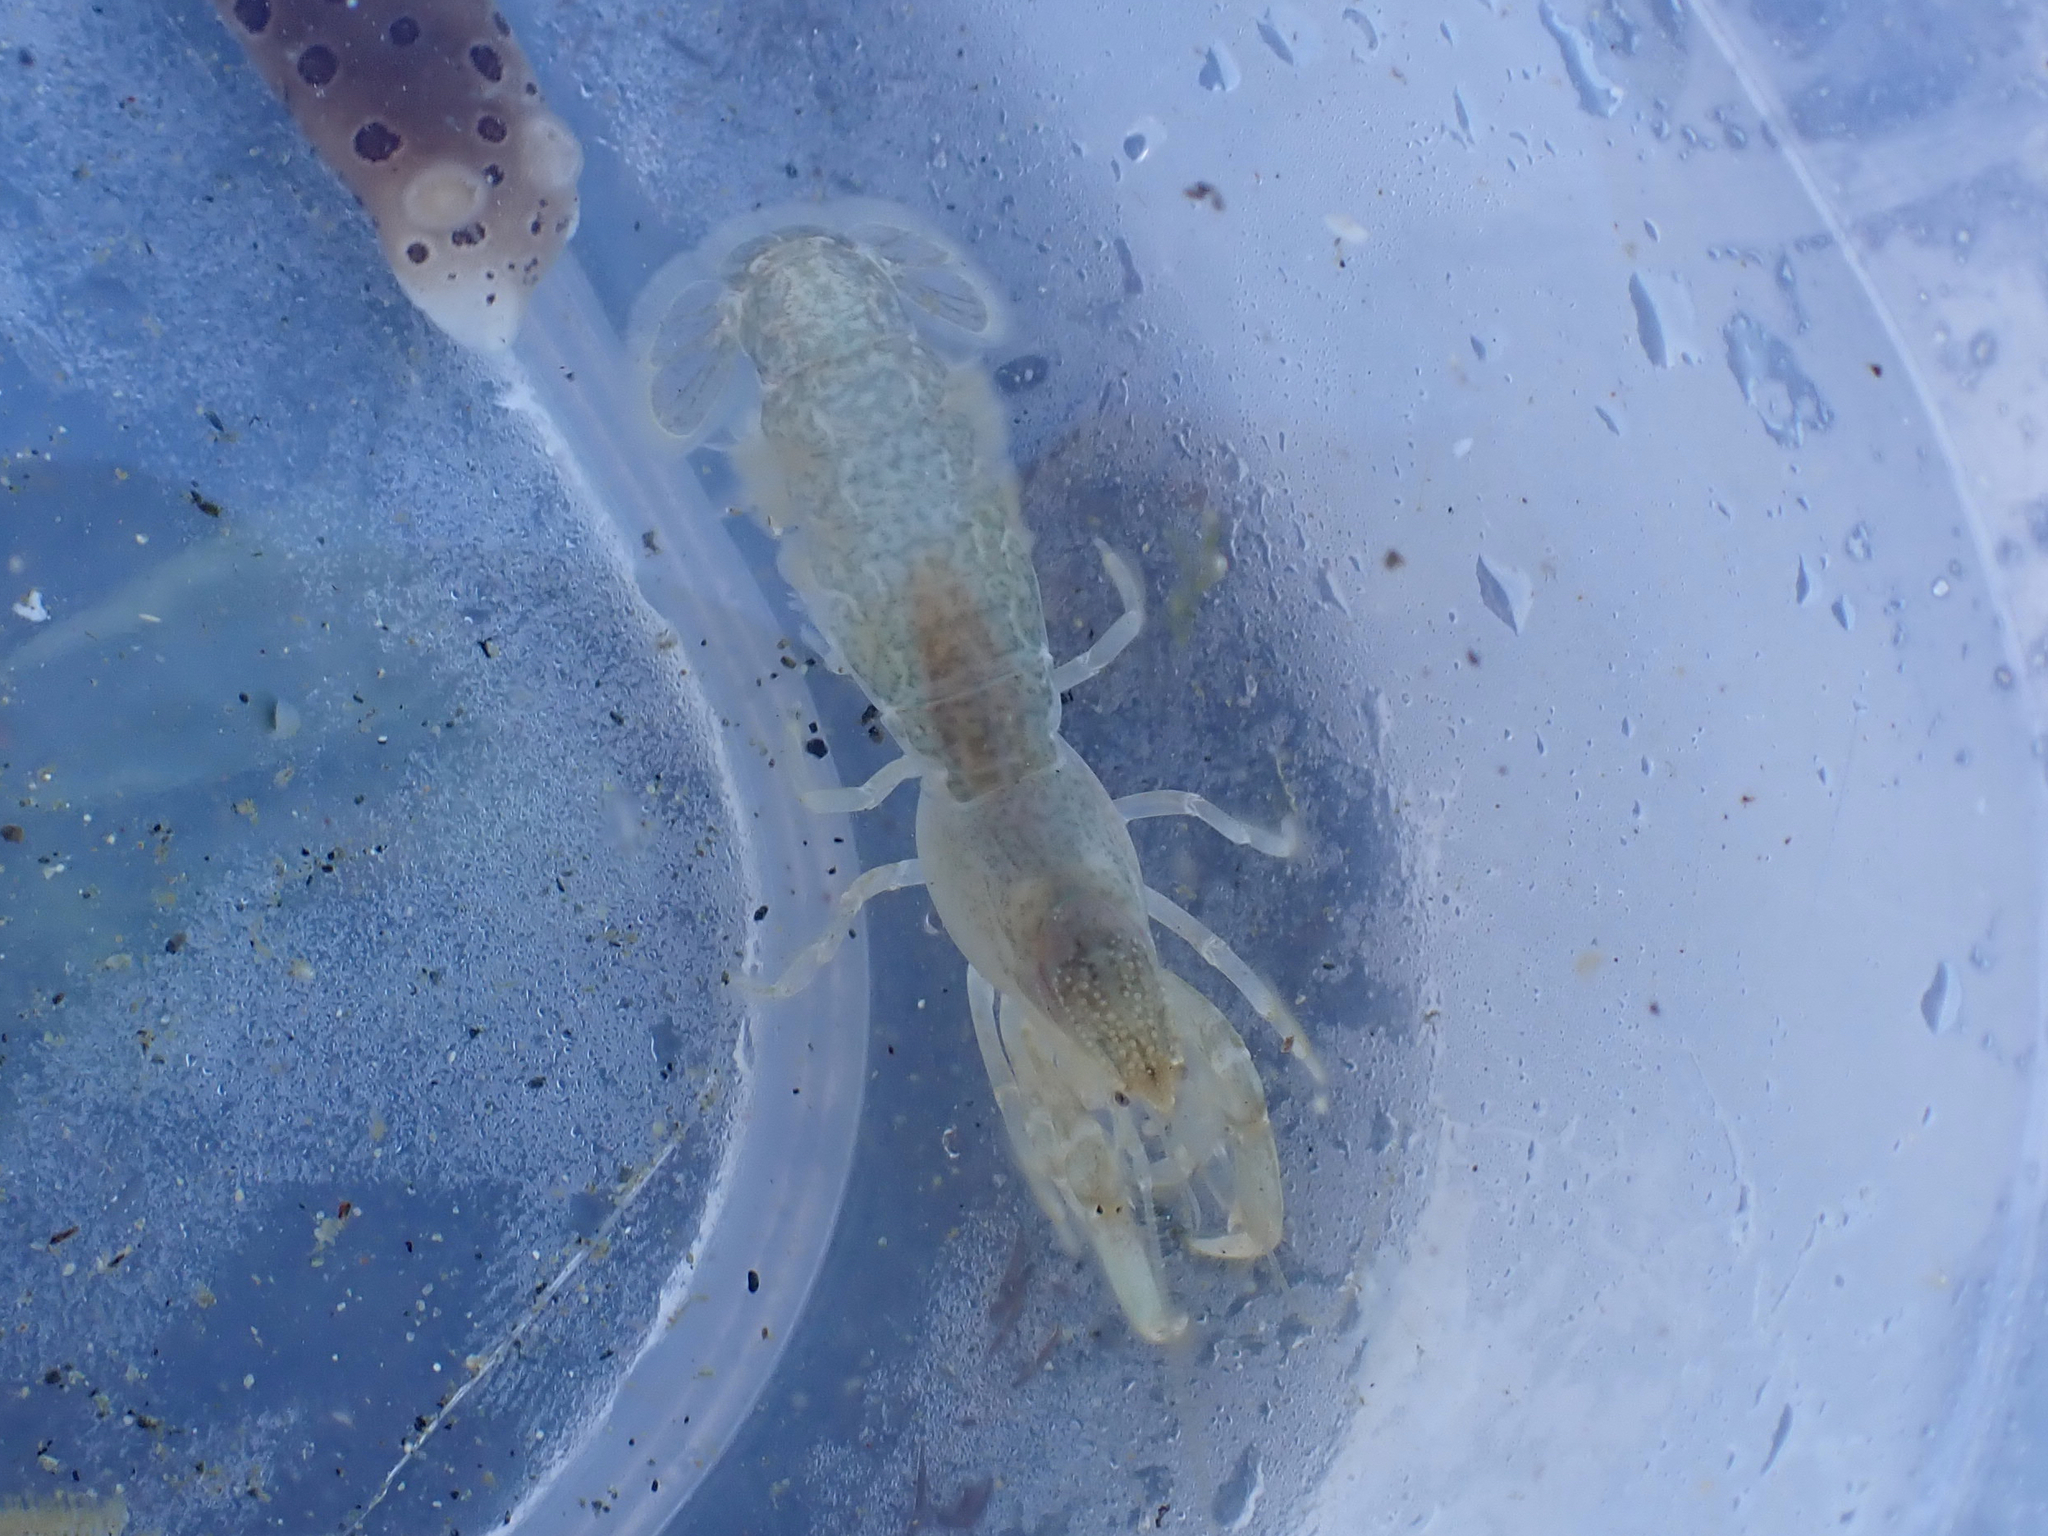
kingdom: Animalia
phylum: Arthropoda
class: Malacostraca
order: Decapoda
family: Upogebiidae
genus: Upogebia
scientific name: Upogebia pugettensis
